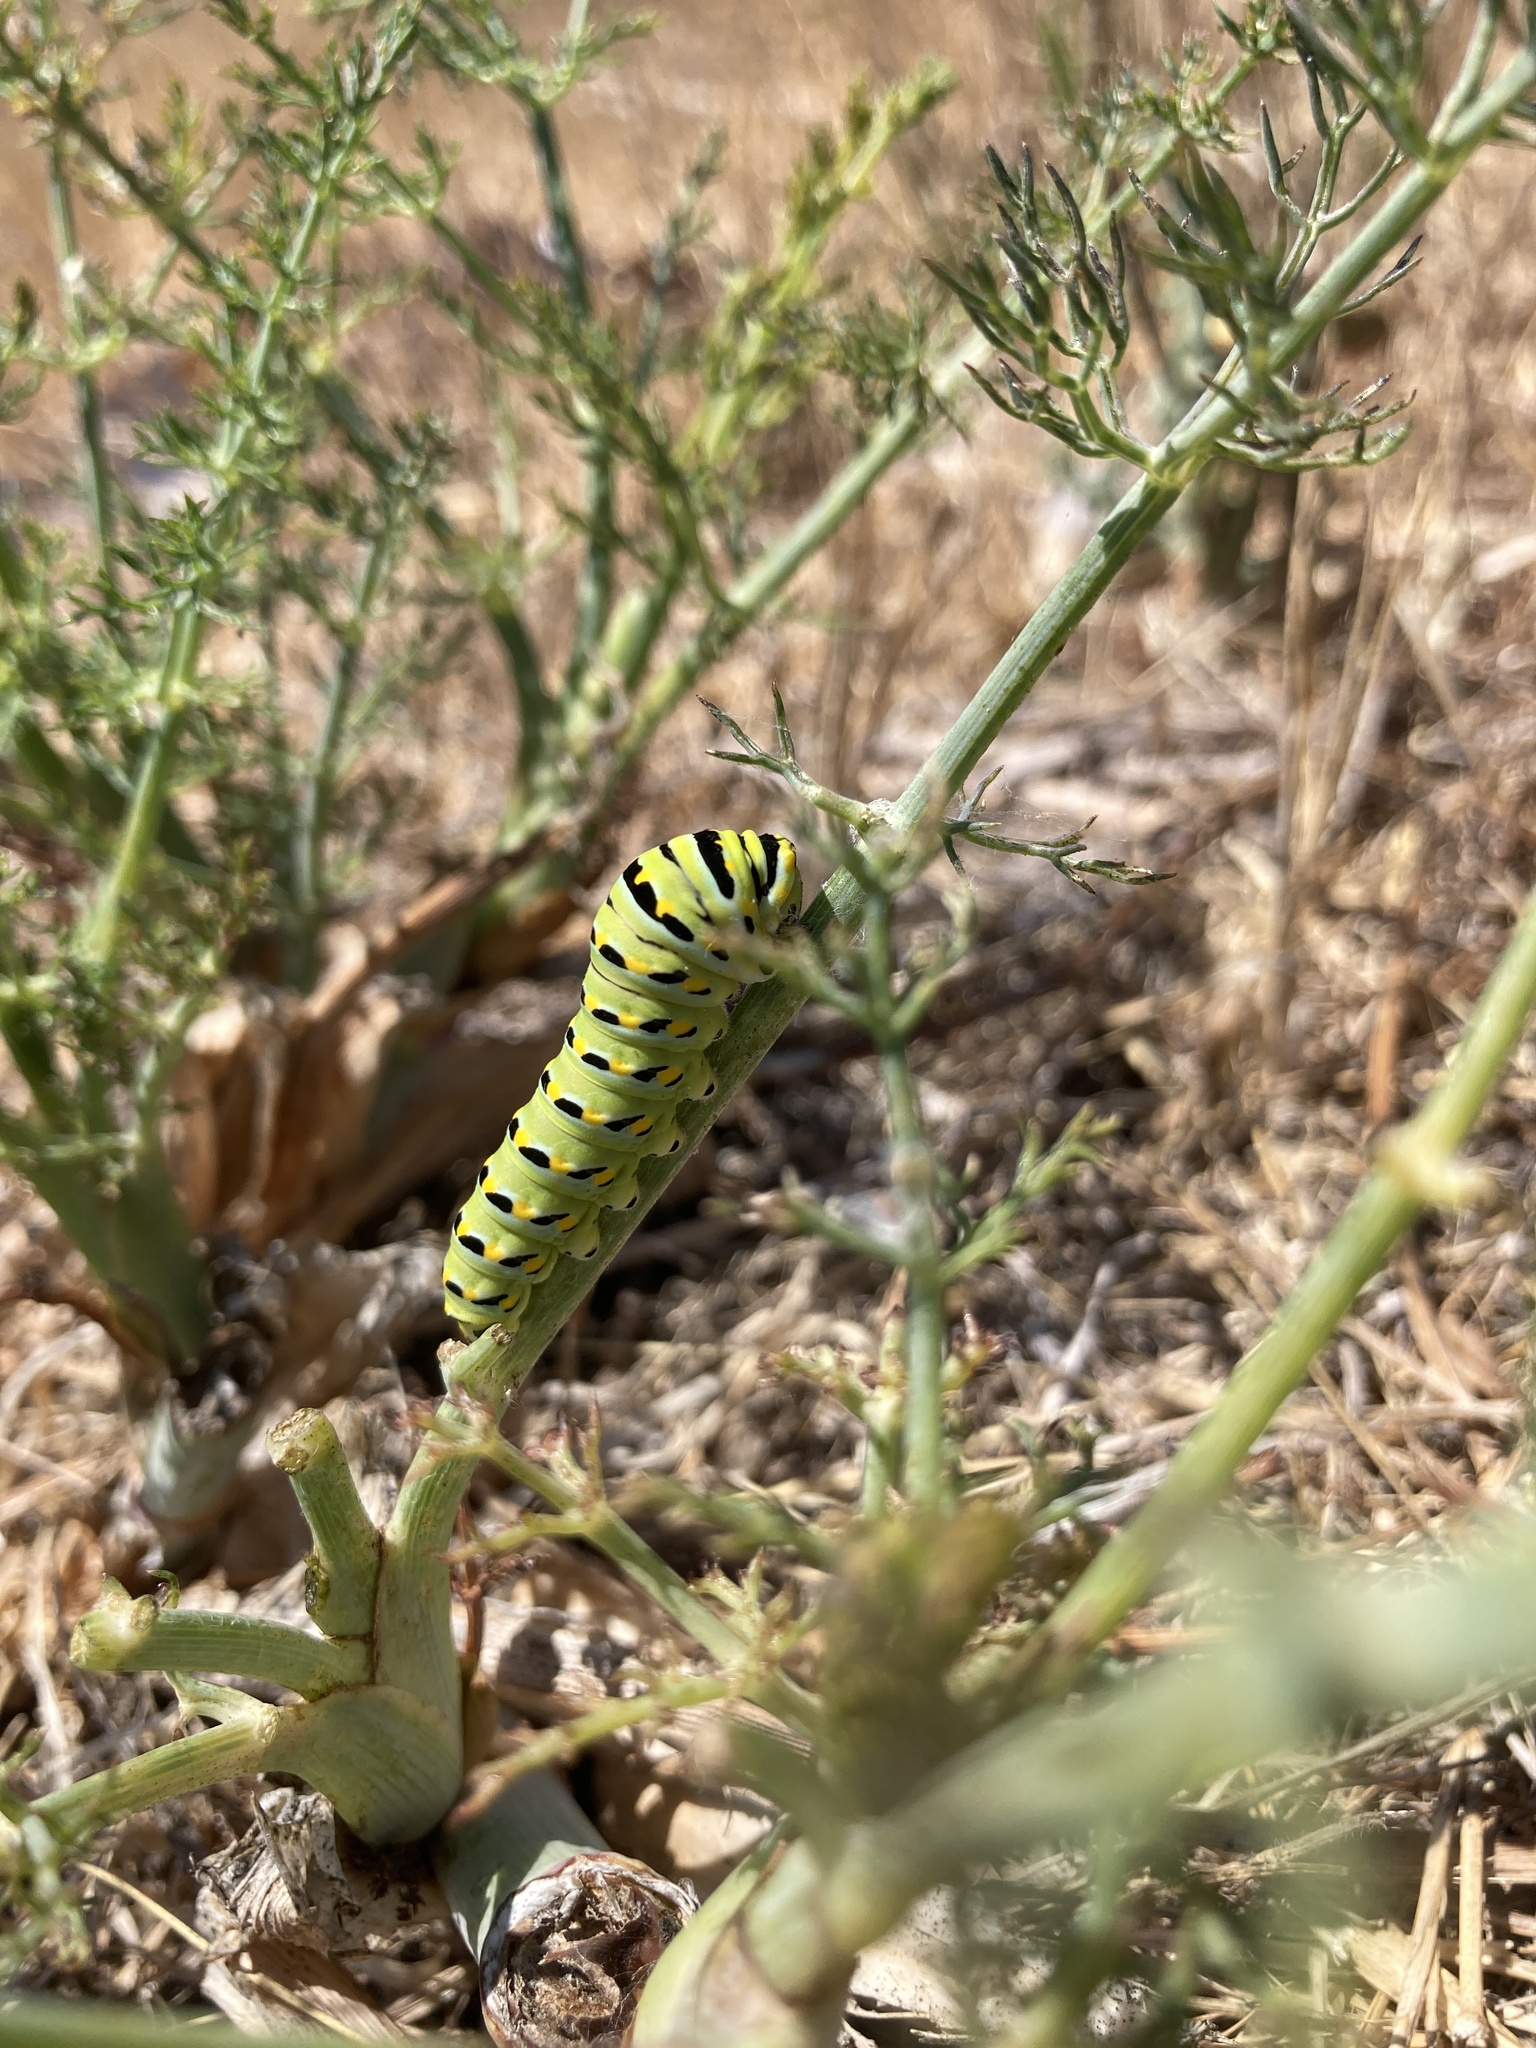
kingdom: Animalia
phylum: Arthropoda
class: Insecta
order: Lepidoptera
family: Papilionidae
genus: Papilio
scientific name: Papilio zelicaon
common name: Anise swallowtail
